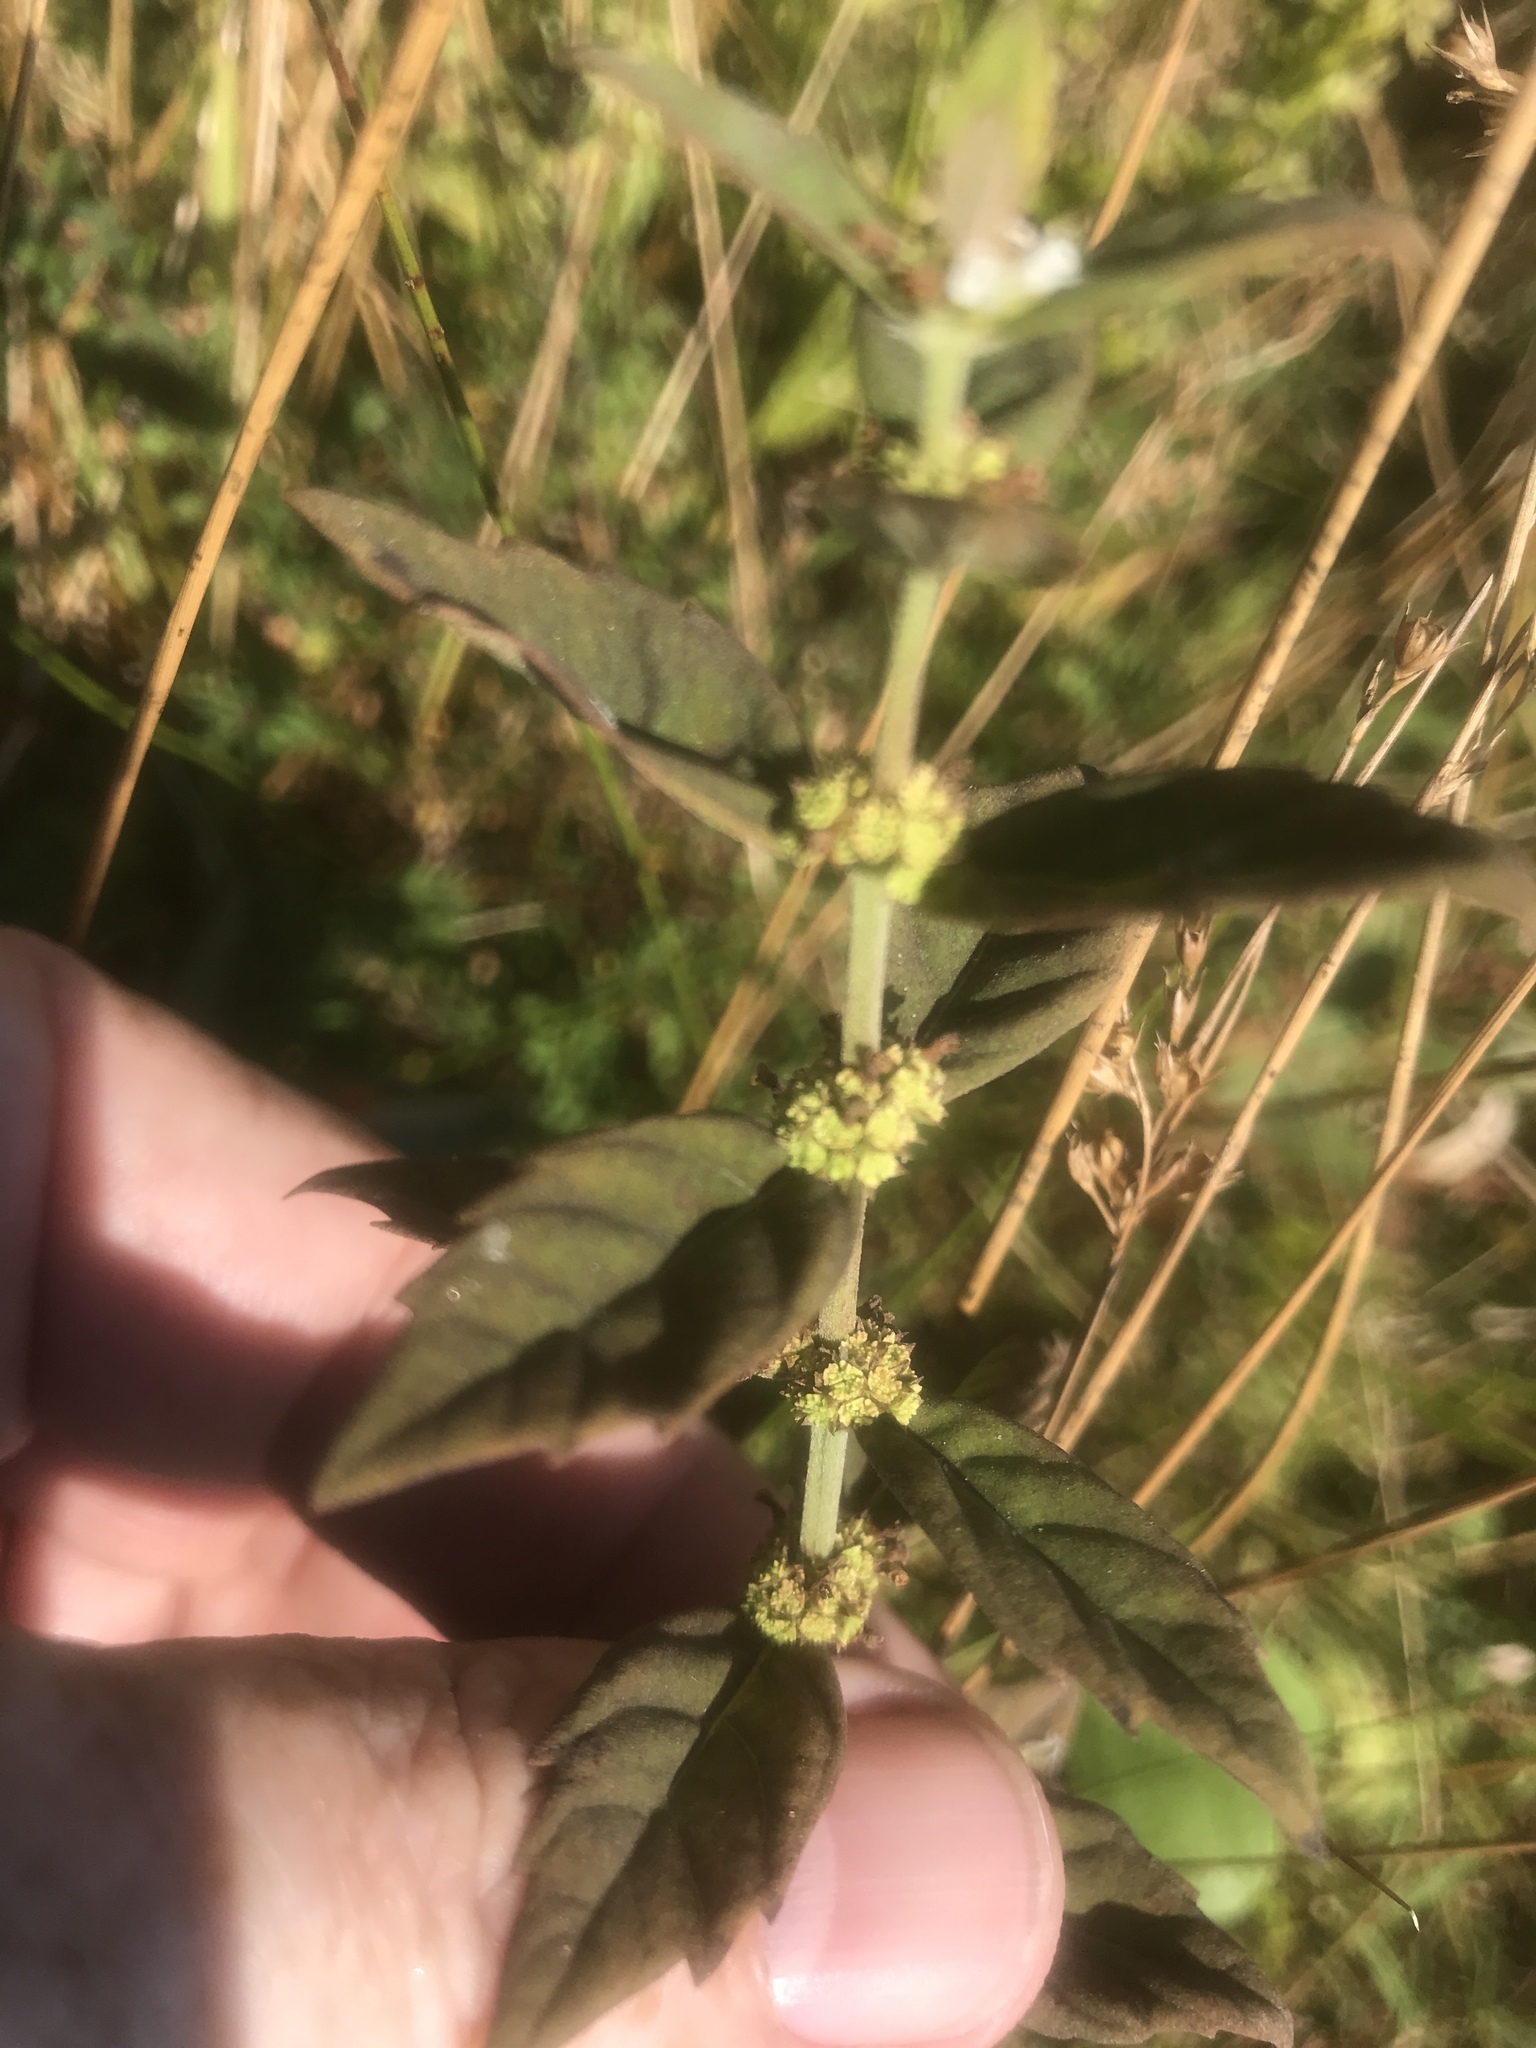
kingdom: Plantae
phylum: Tracheophyta
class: Magnoliopsida
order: Lamiales
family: Lamiaceae
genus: Lycopus
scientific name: Lycopus cokeri
